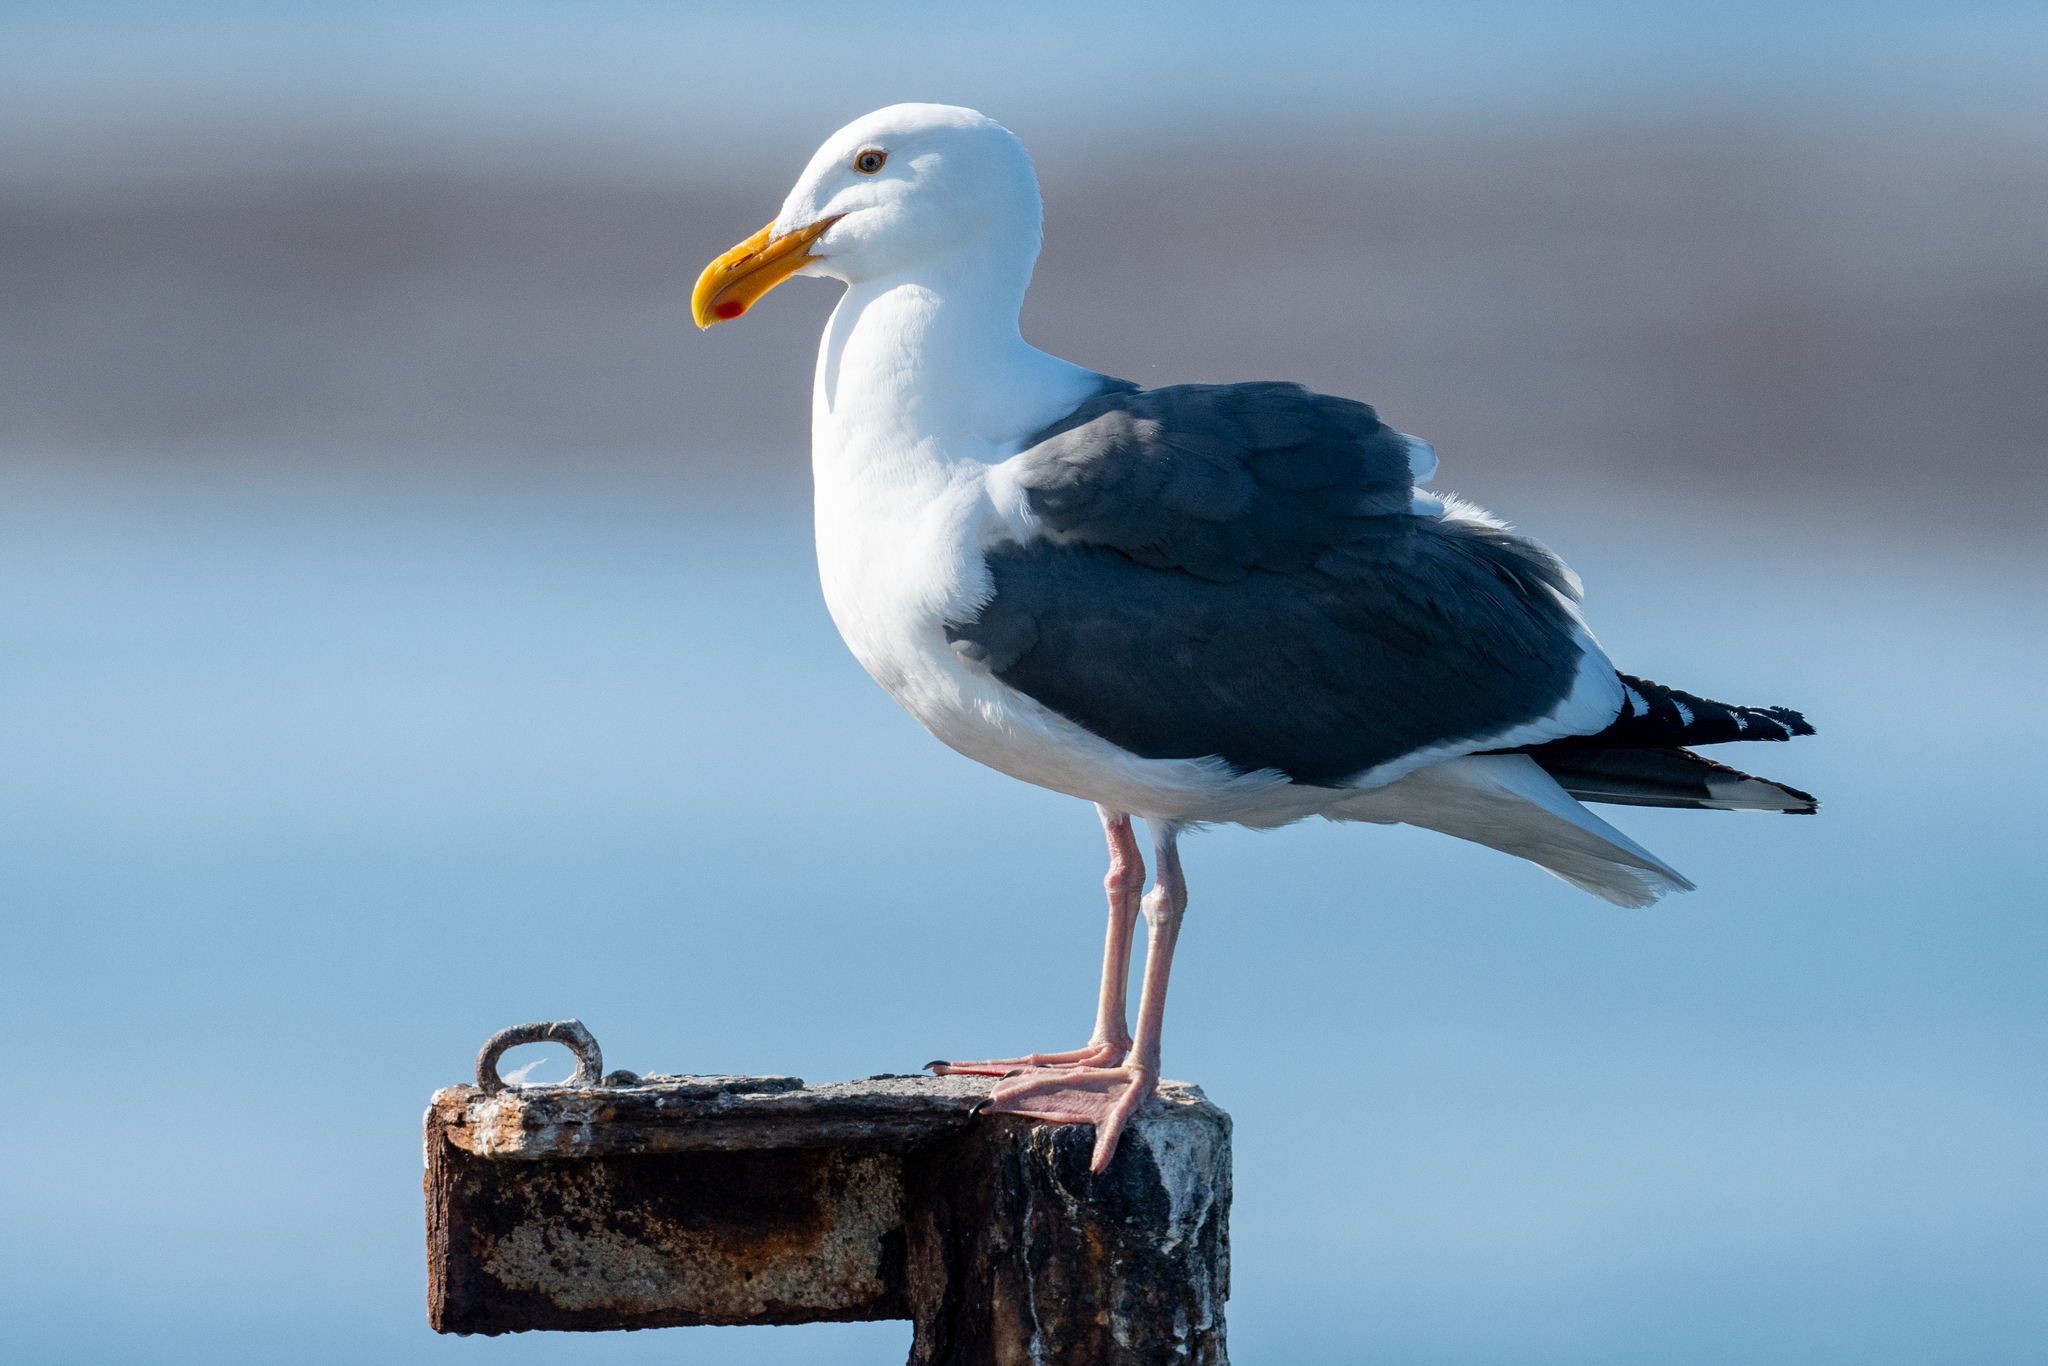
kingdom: Animalia
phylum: Chordata
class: Aves
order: Charadriiformes
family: Laridae
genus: Larus
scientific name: Larus occidentalis
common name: Western gull
